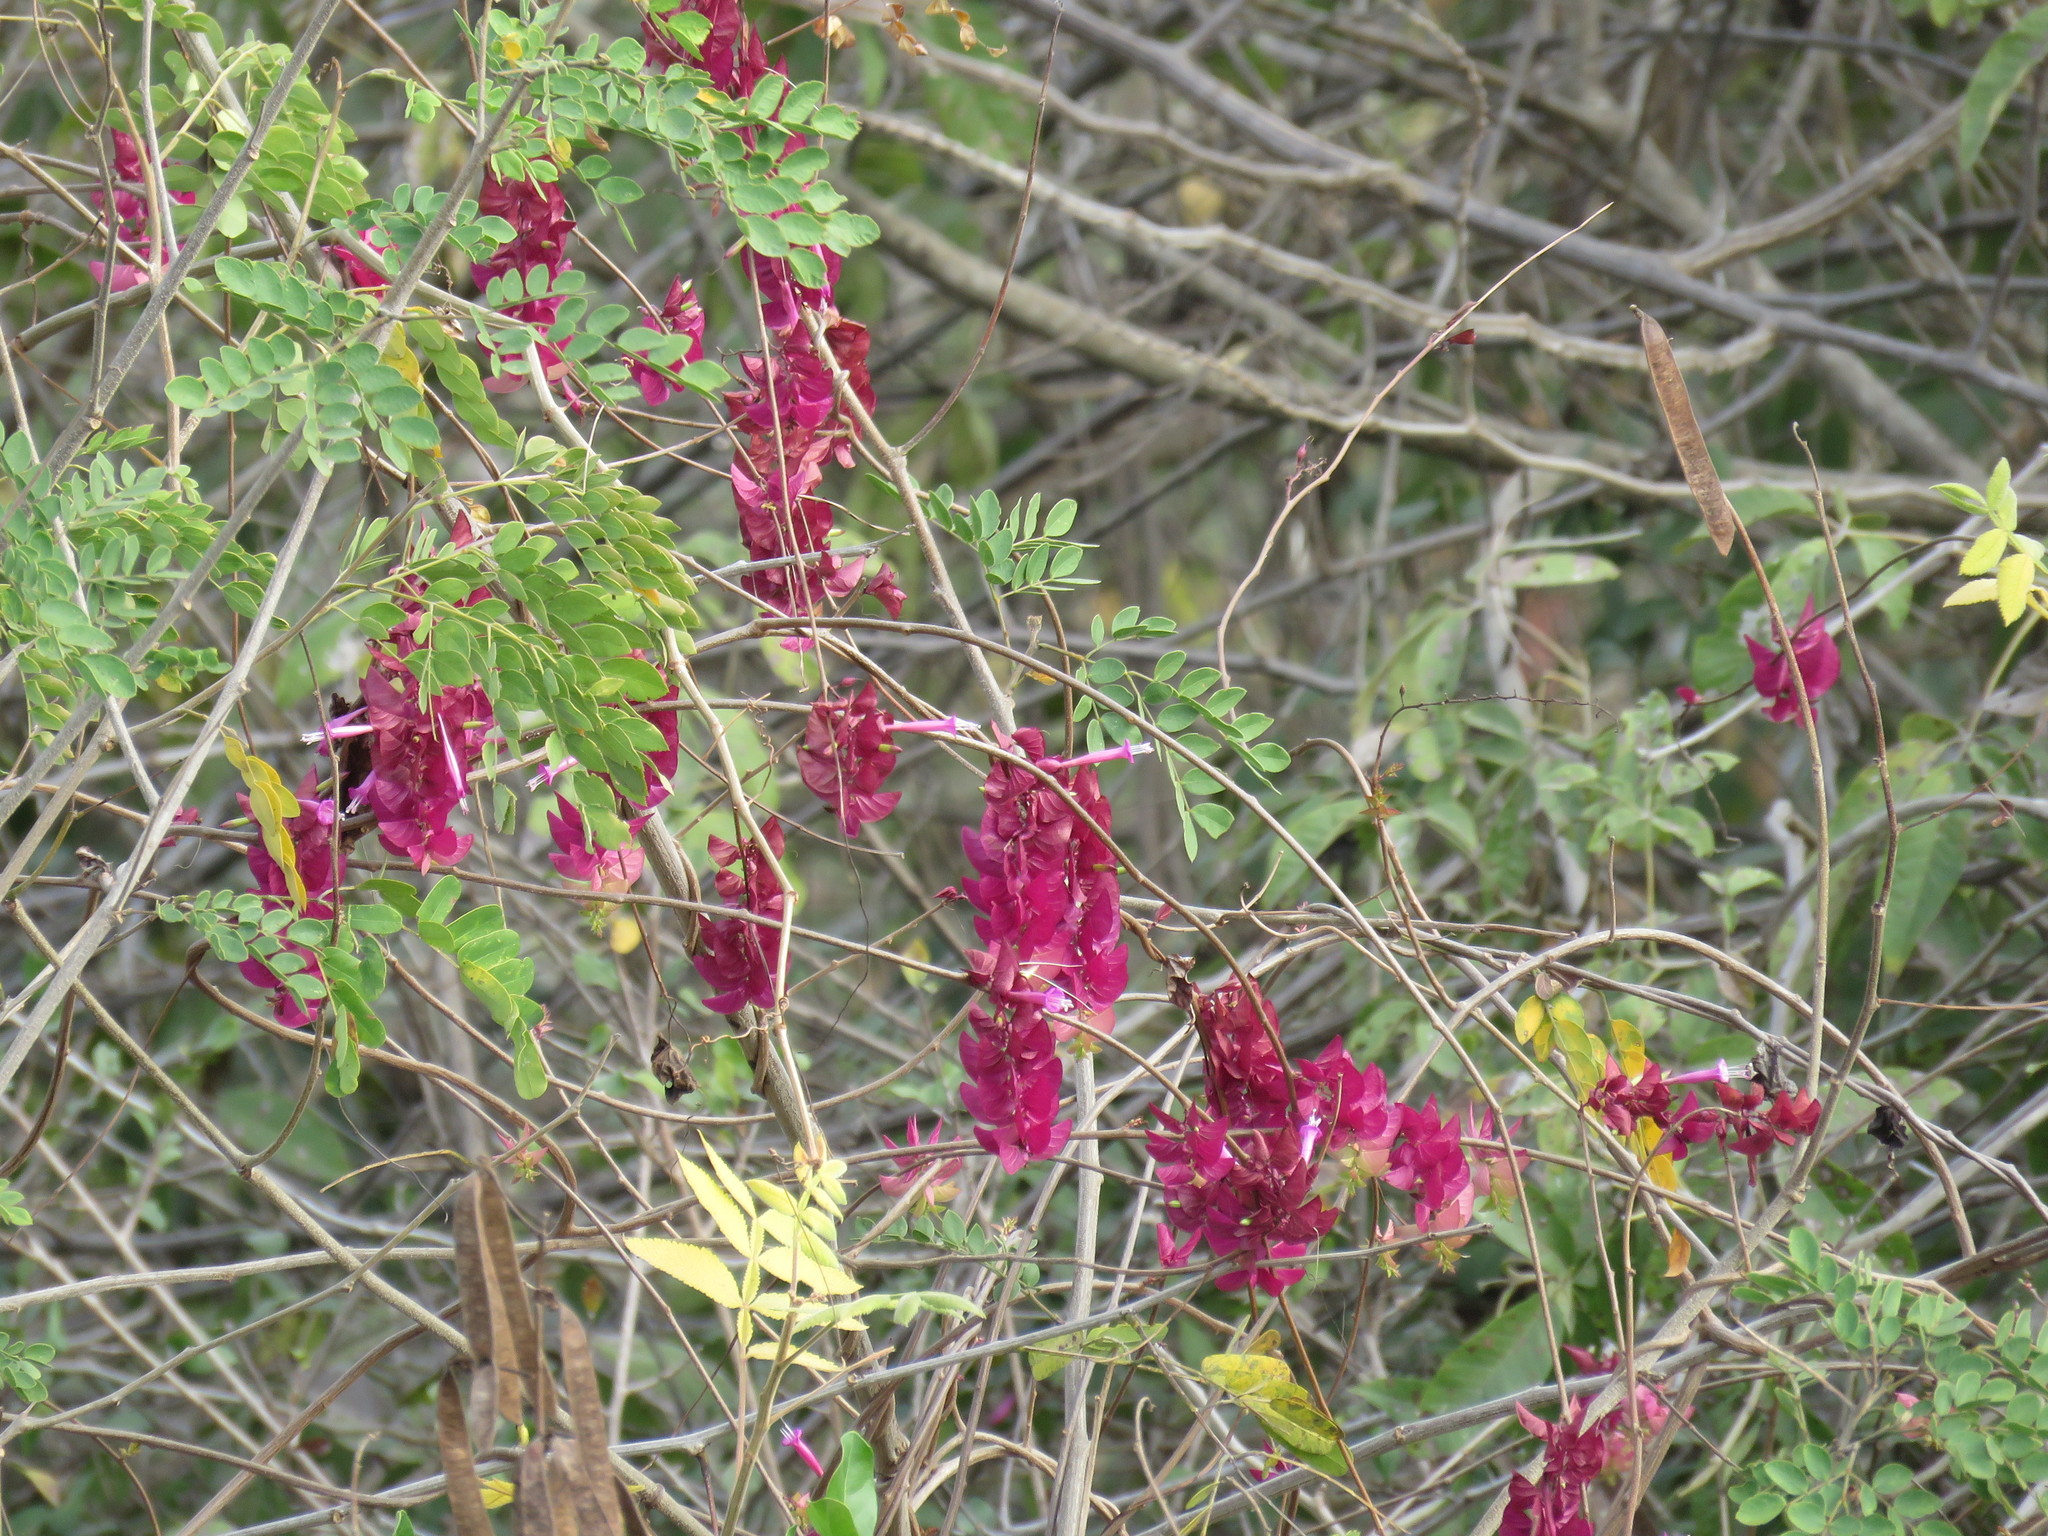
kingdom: Plantae
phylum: Tracheophyta
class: Magnoliopsida
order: Solanales
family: Convolvulaceae
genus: Ipomoea
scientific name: Ipomoea bracteata
